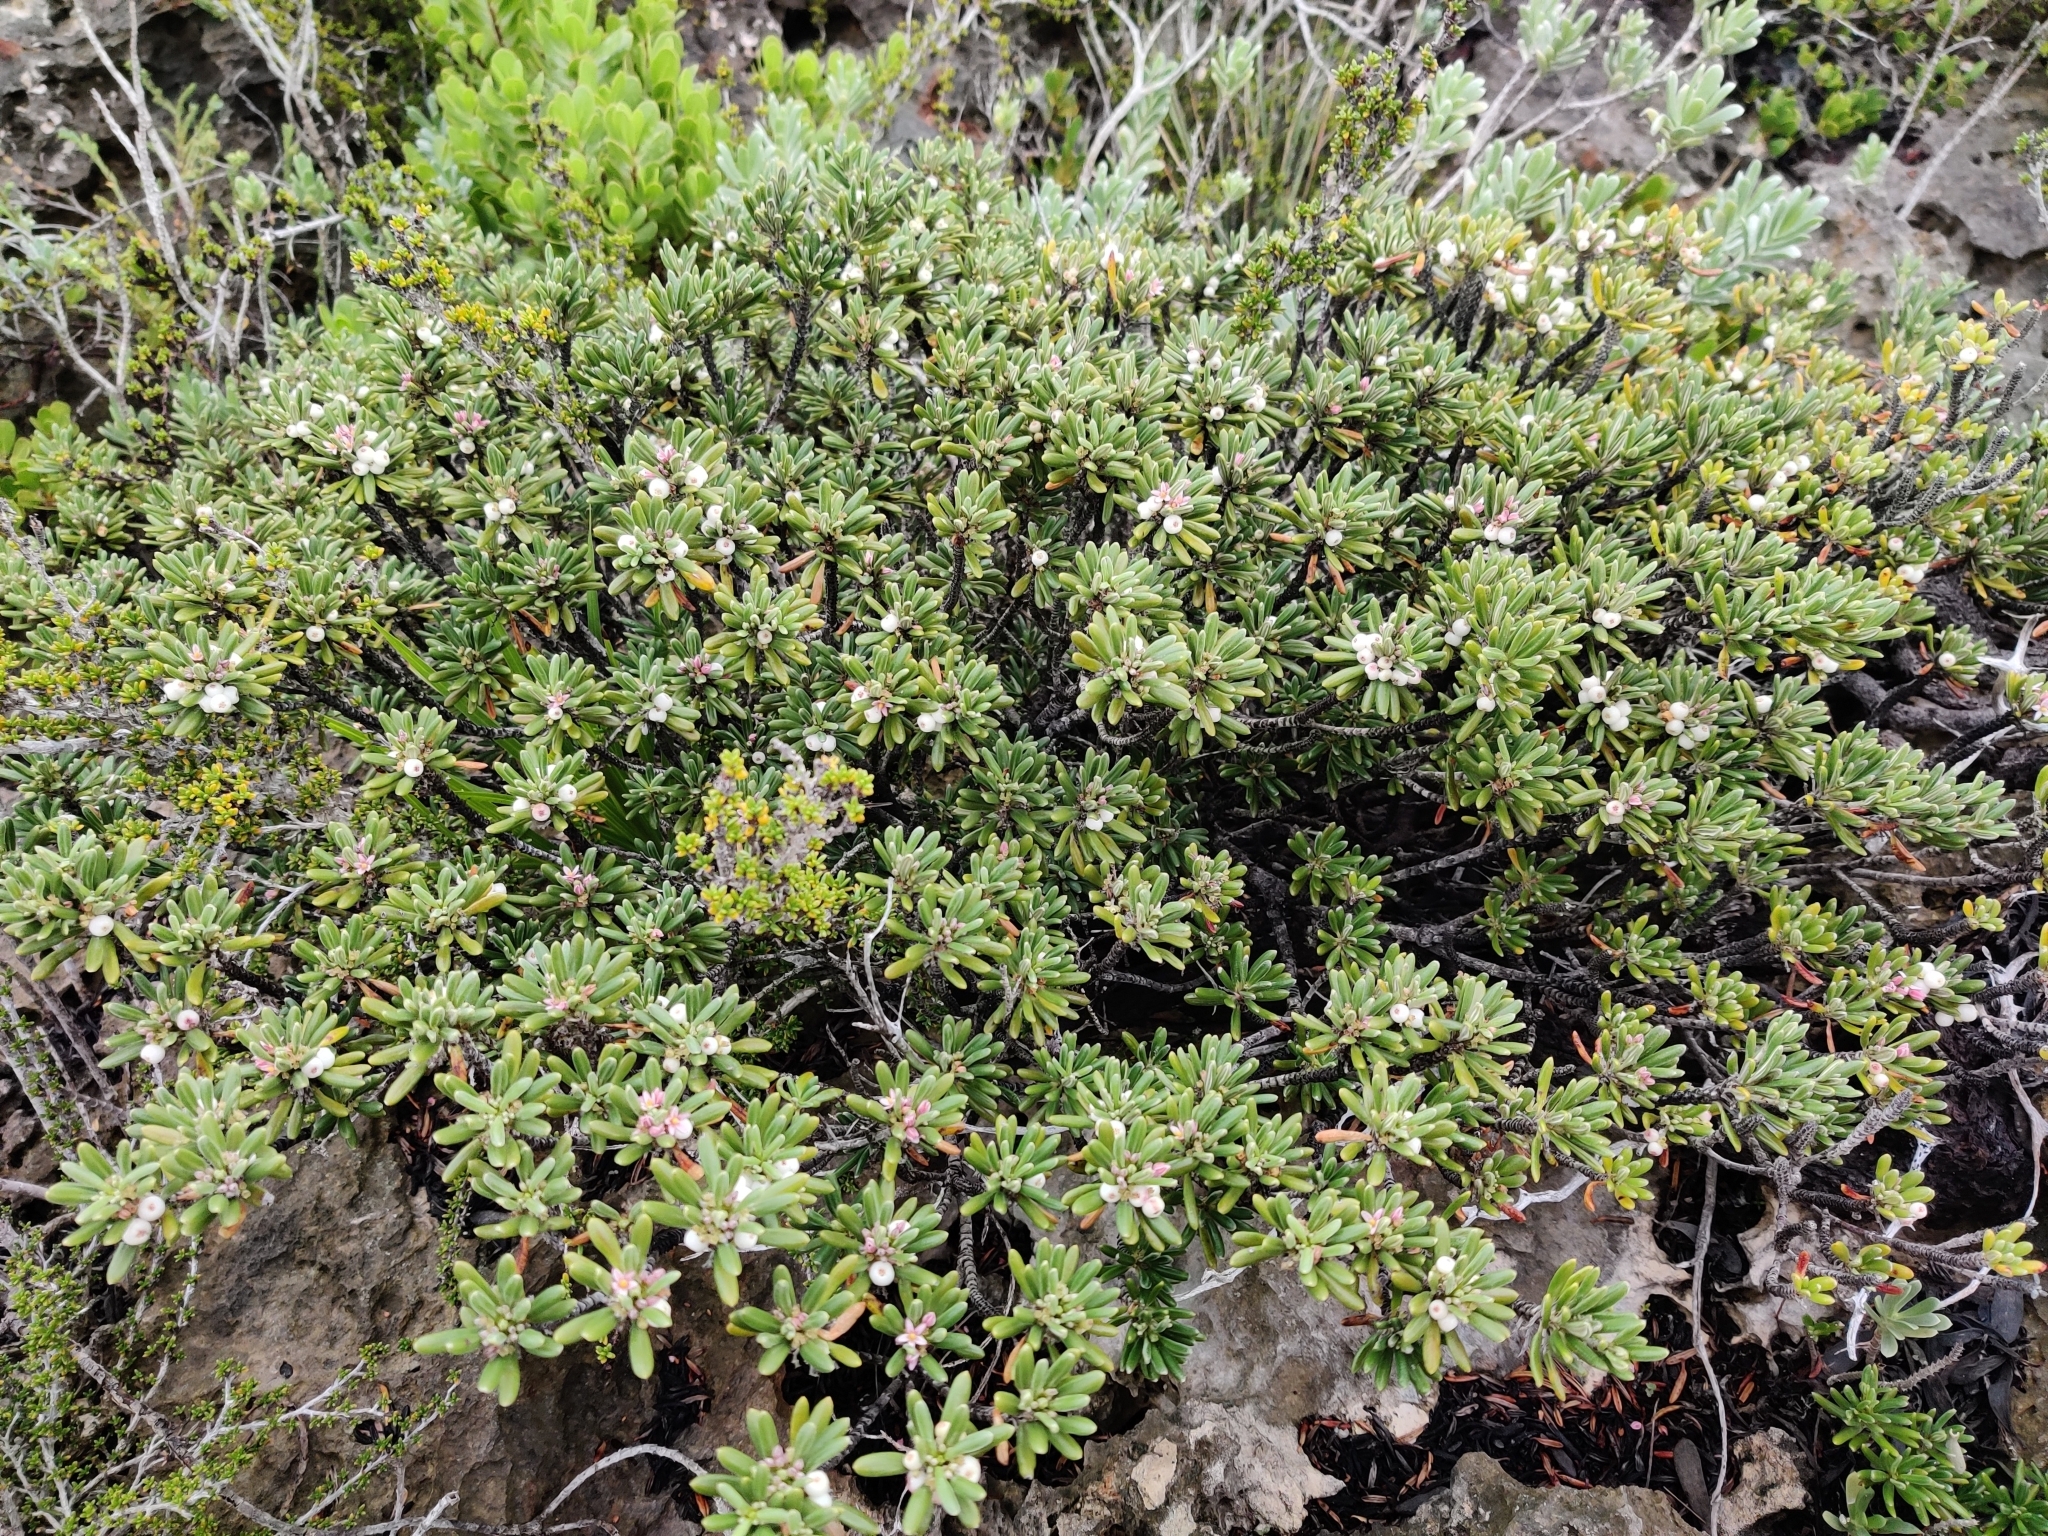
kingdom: Plantae
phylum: Tracheophyta
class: Magnoliopsida
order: Gentianales
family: Rubiaceae
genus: Strumpfia
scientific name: Strumpfia maritima
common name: Pride-of-big pine
